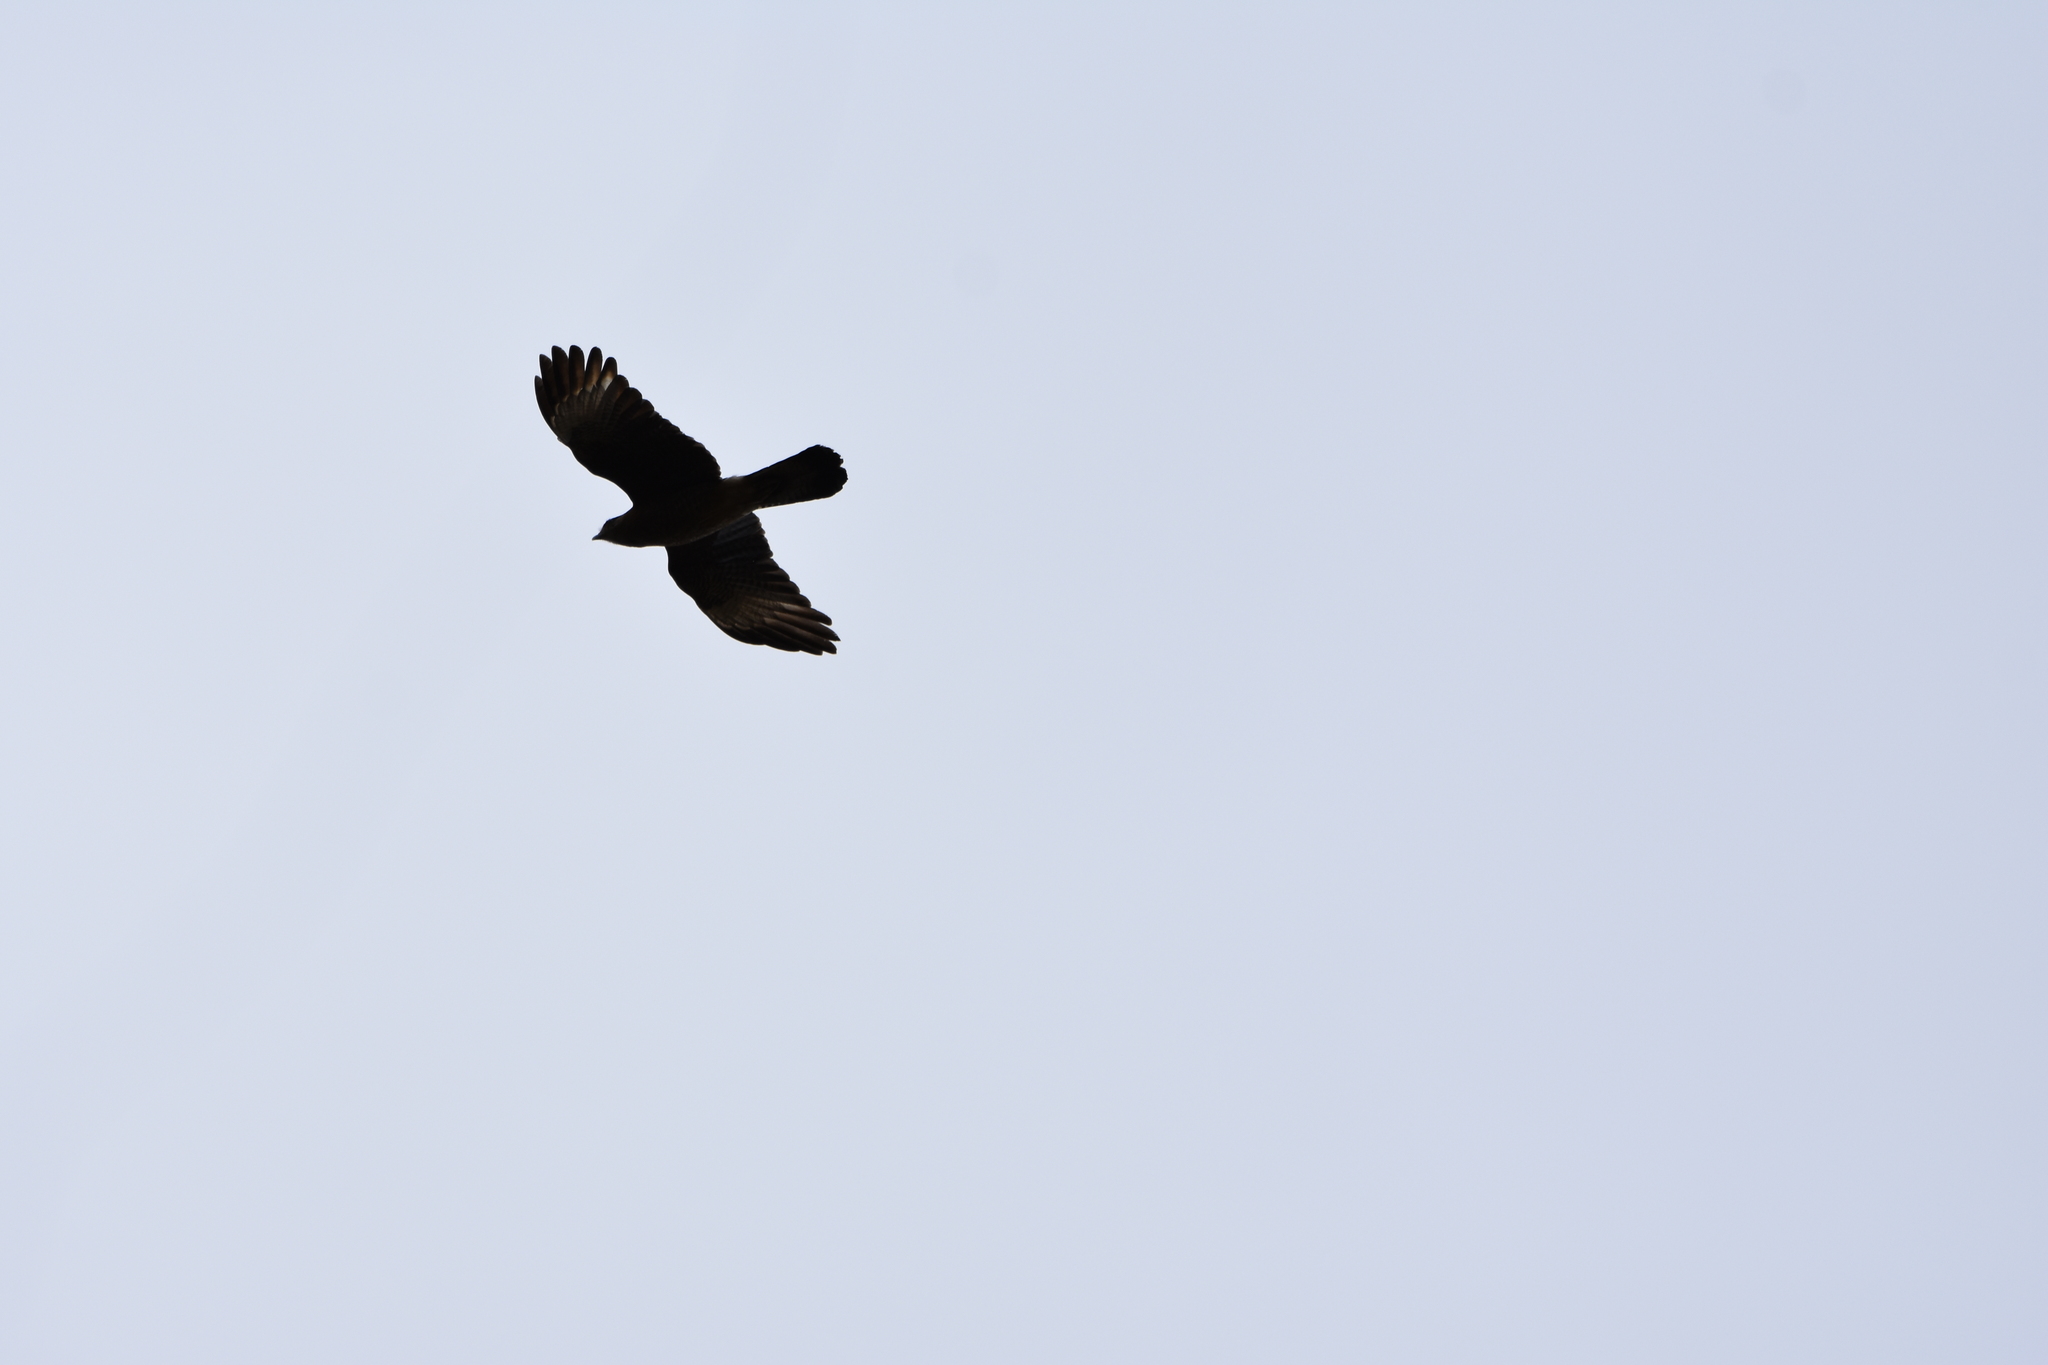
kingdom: Animalia
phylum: Chordata
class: Aves
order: Falconiformes
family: Falconidae
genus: Daptrius
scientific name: Daptrius
